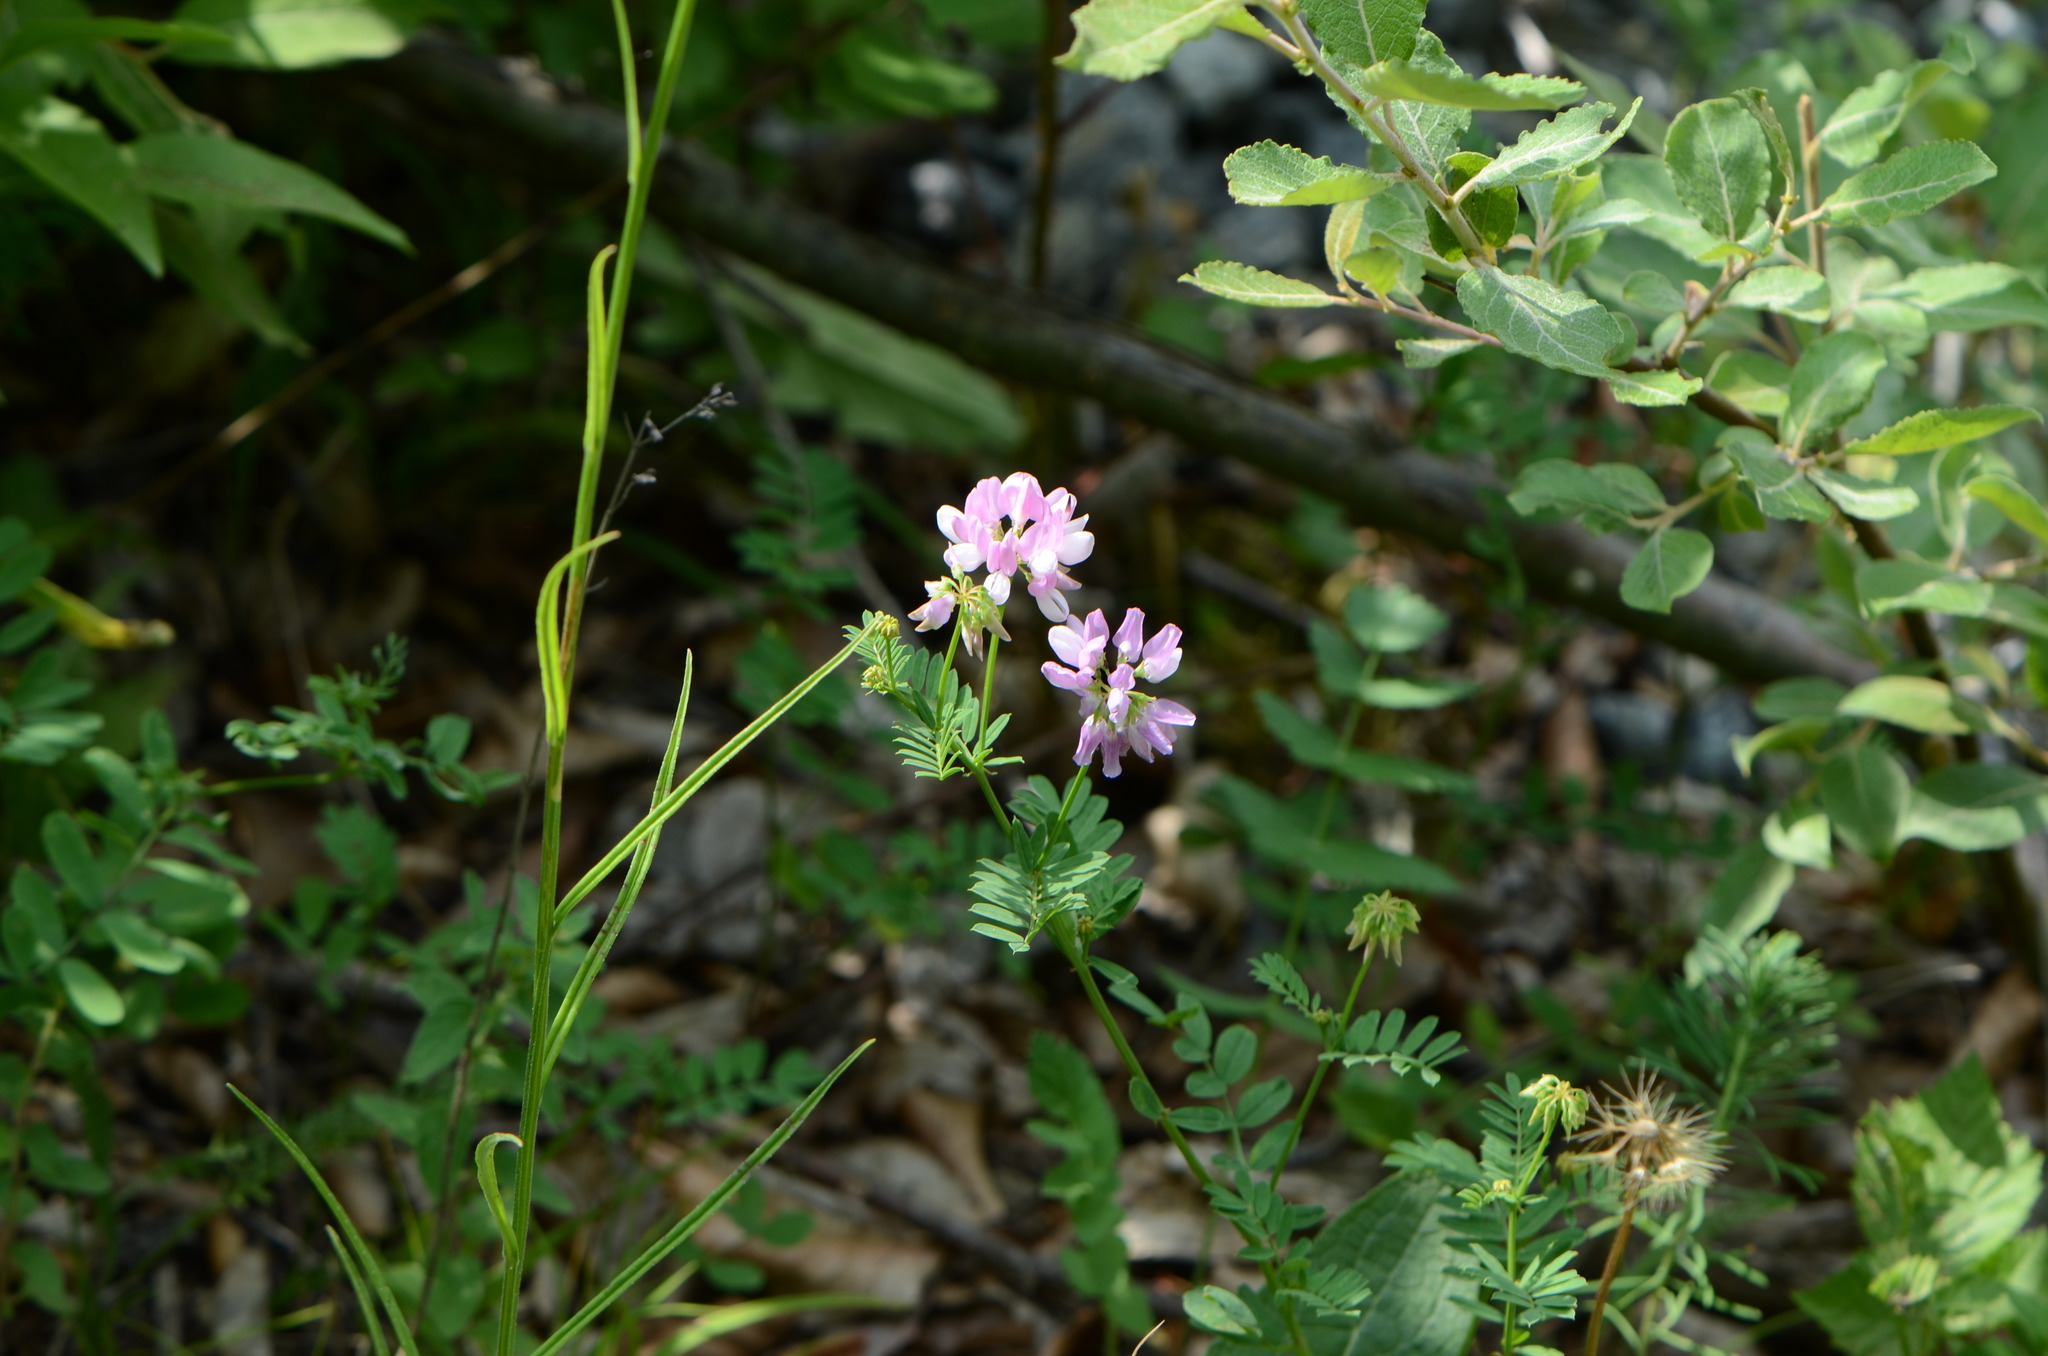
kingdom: Plantae
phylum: Tracheophyta
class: Magnoliopsida
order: Fabales
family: Fabaceae
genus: Coronilla
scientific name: Coronilla varia
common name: Crownvetch
